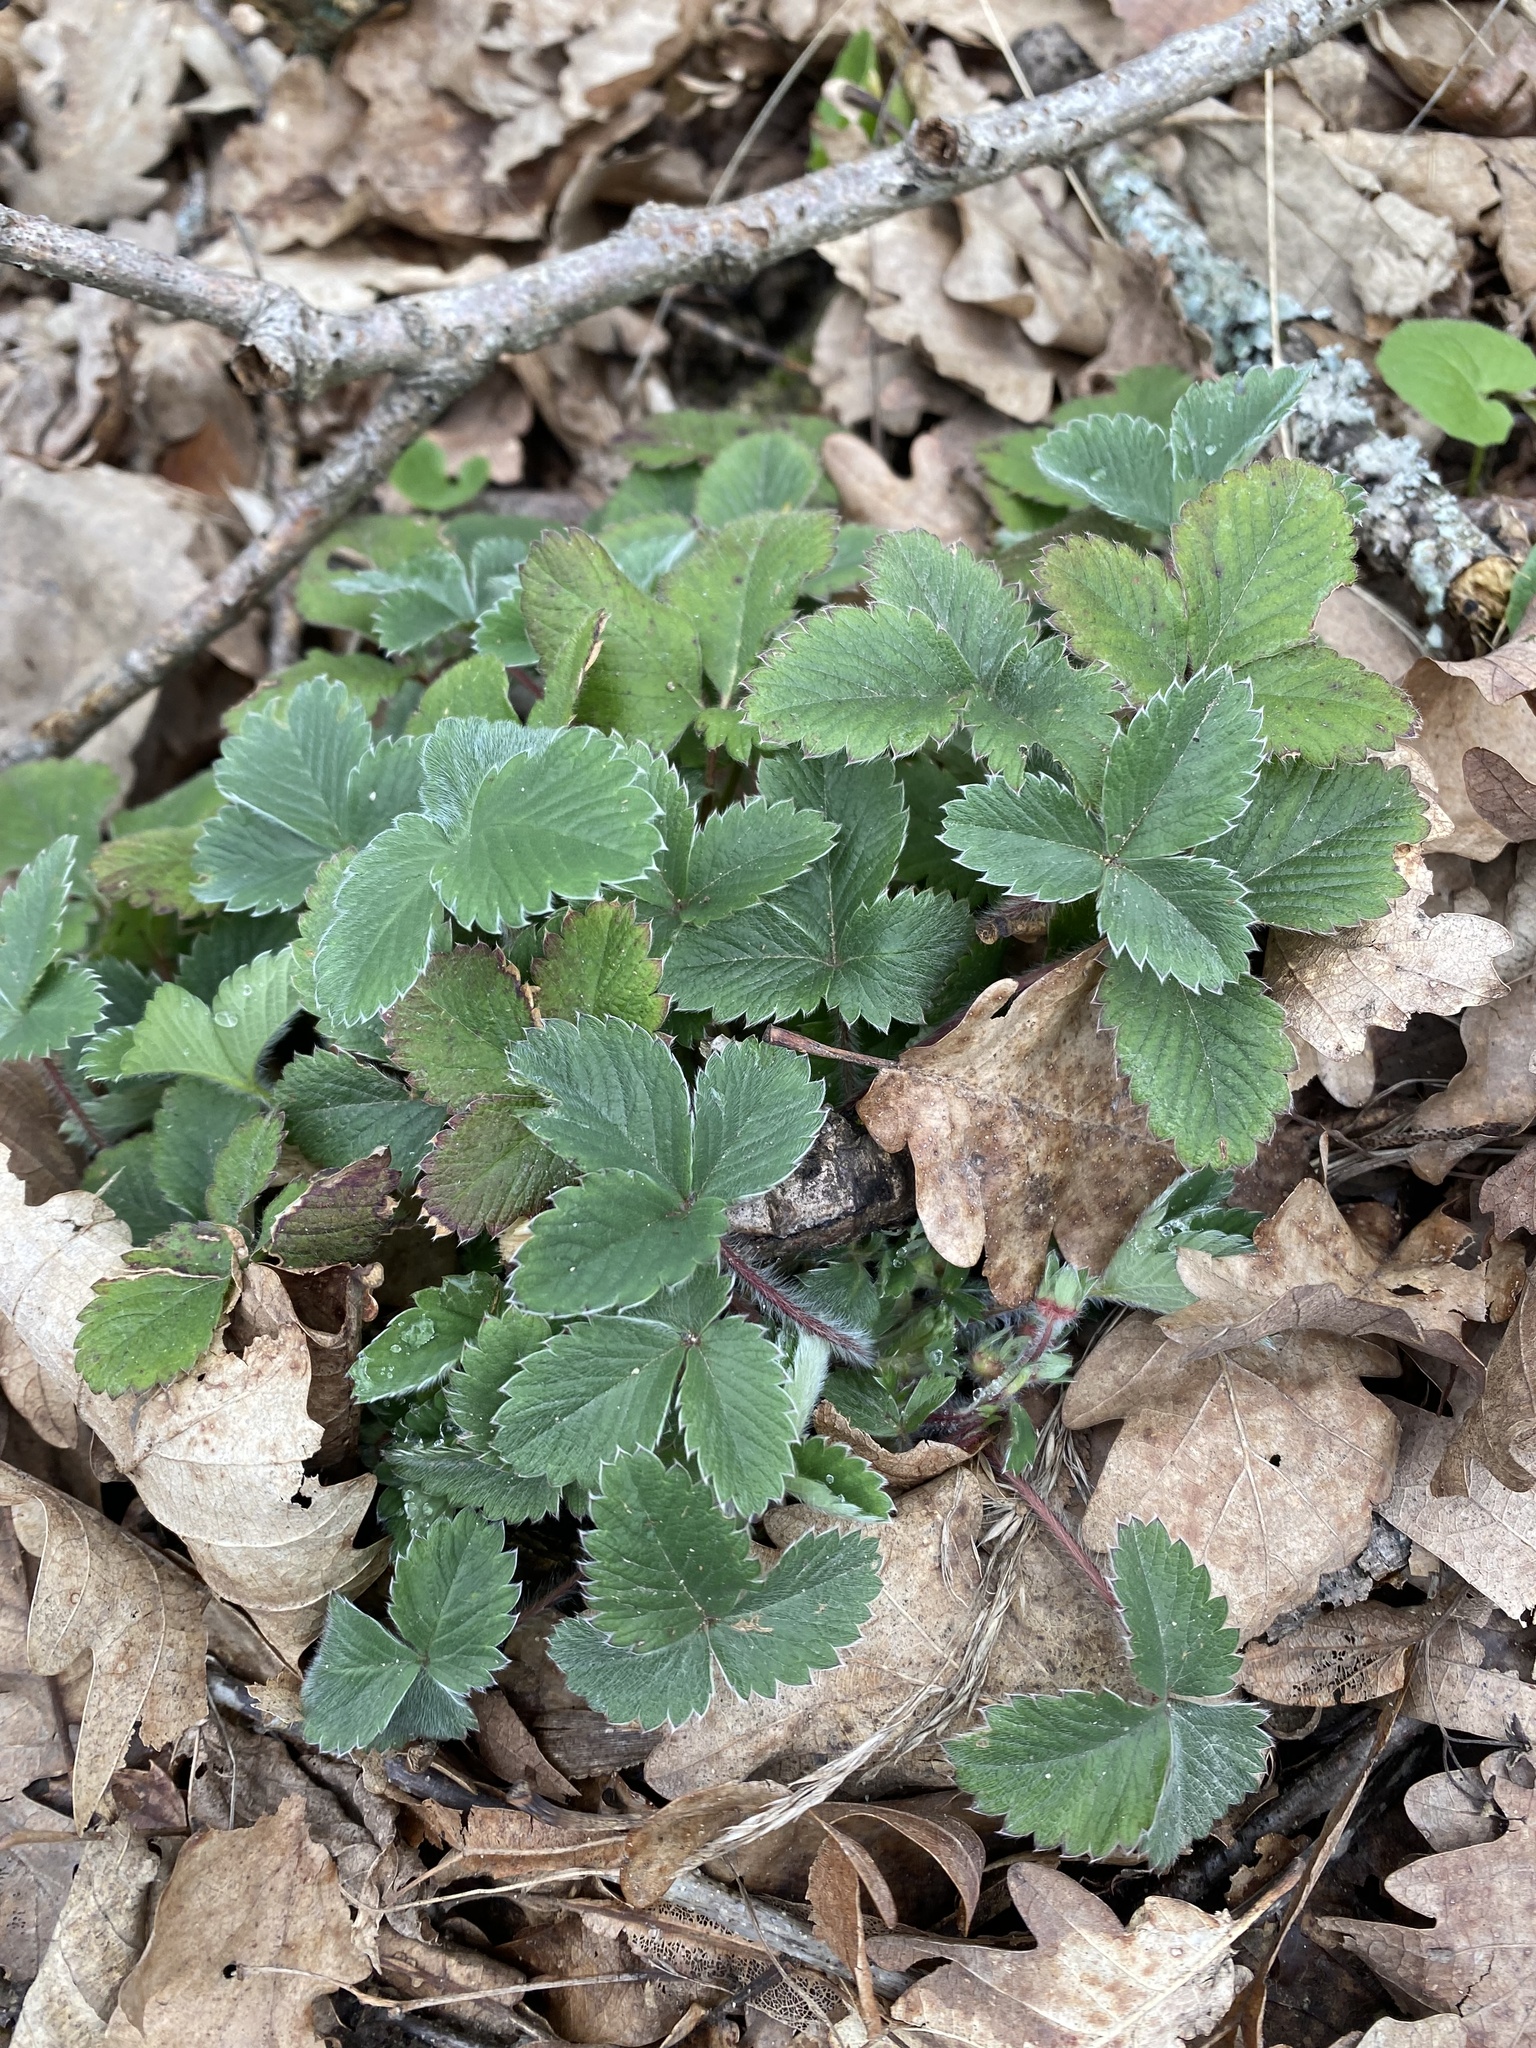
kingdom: Plantae
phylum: Tracheophyta
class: Magnoliopsida
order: Rosales
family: Rosaceae
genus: Potentilla
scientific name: Potentilla micrantha
